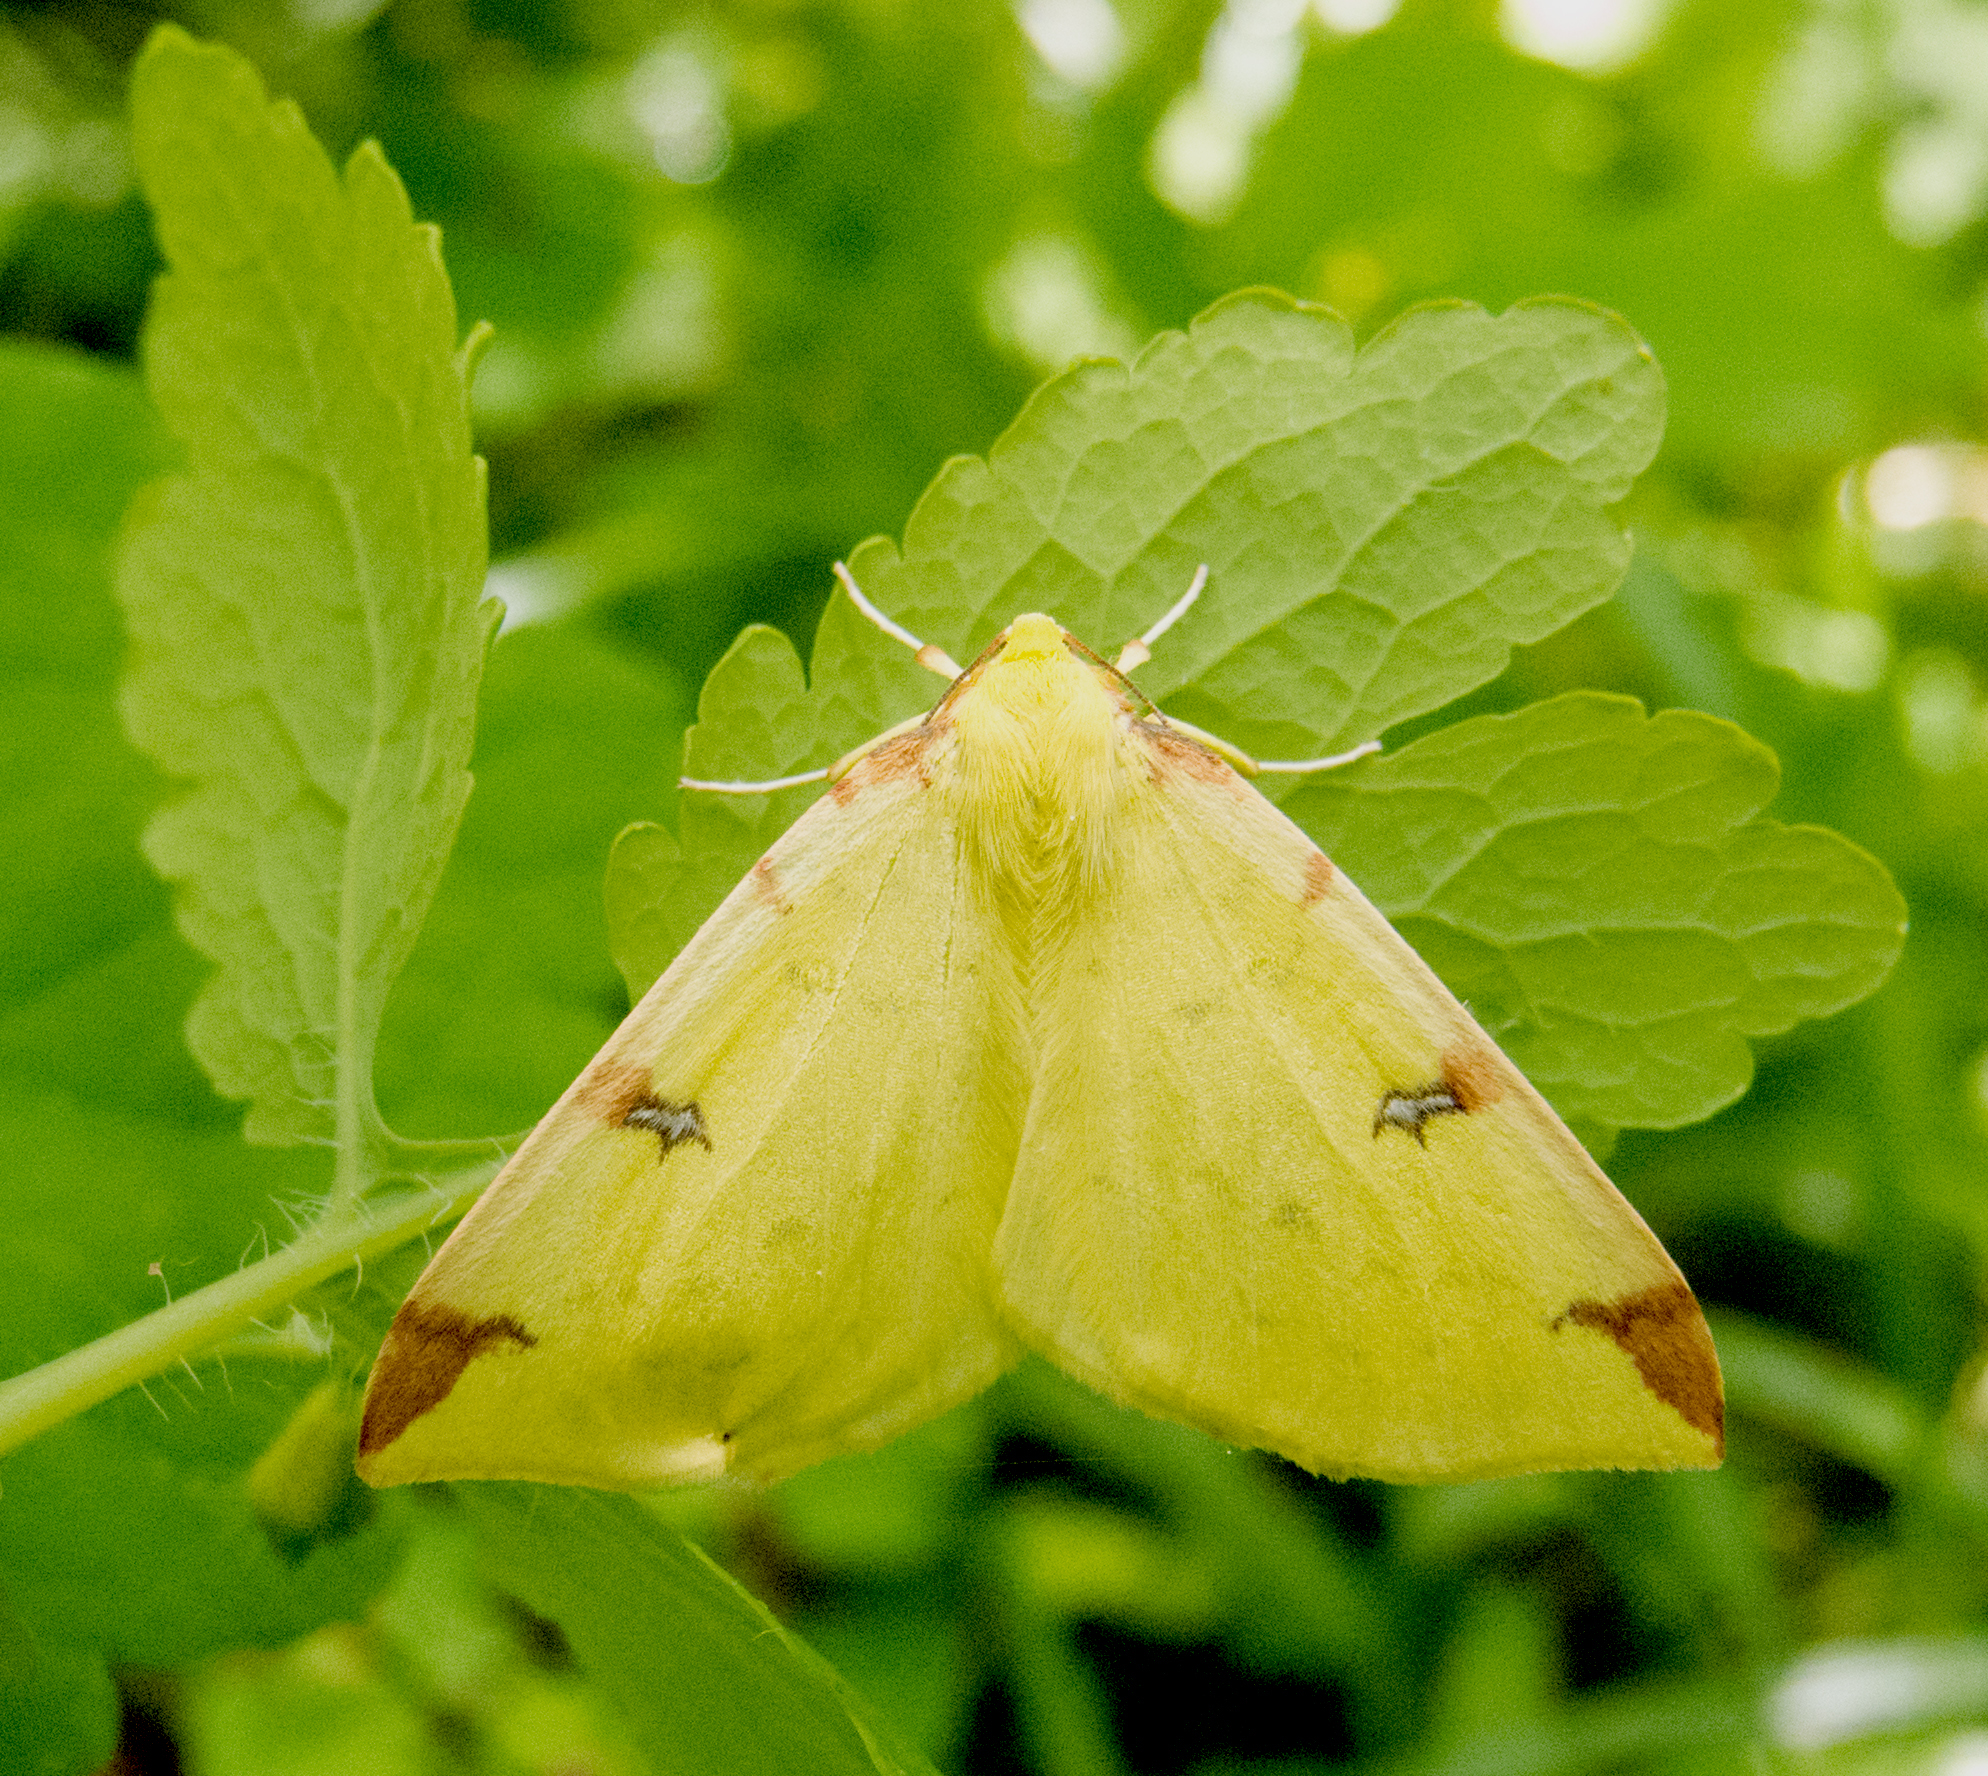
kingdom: Animalia
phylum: Arthropoda
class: Insecta
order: Lepidoptera
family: Geometridae
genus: Opisthograptis
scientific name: Opisthograptis luteolata
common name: Brimstone moth
